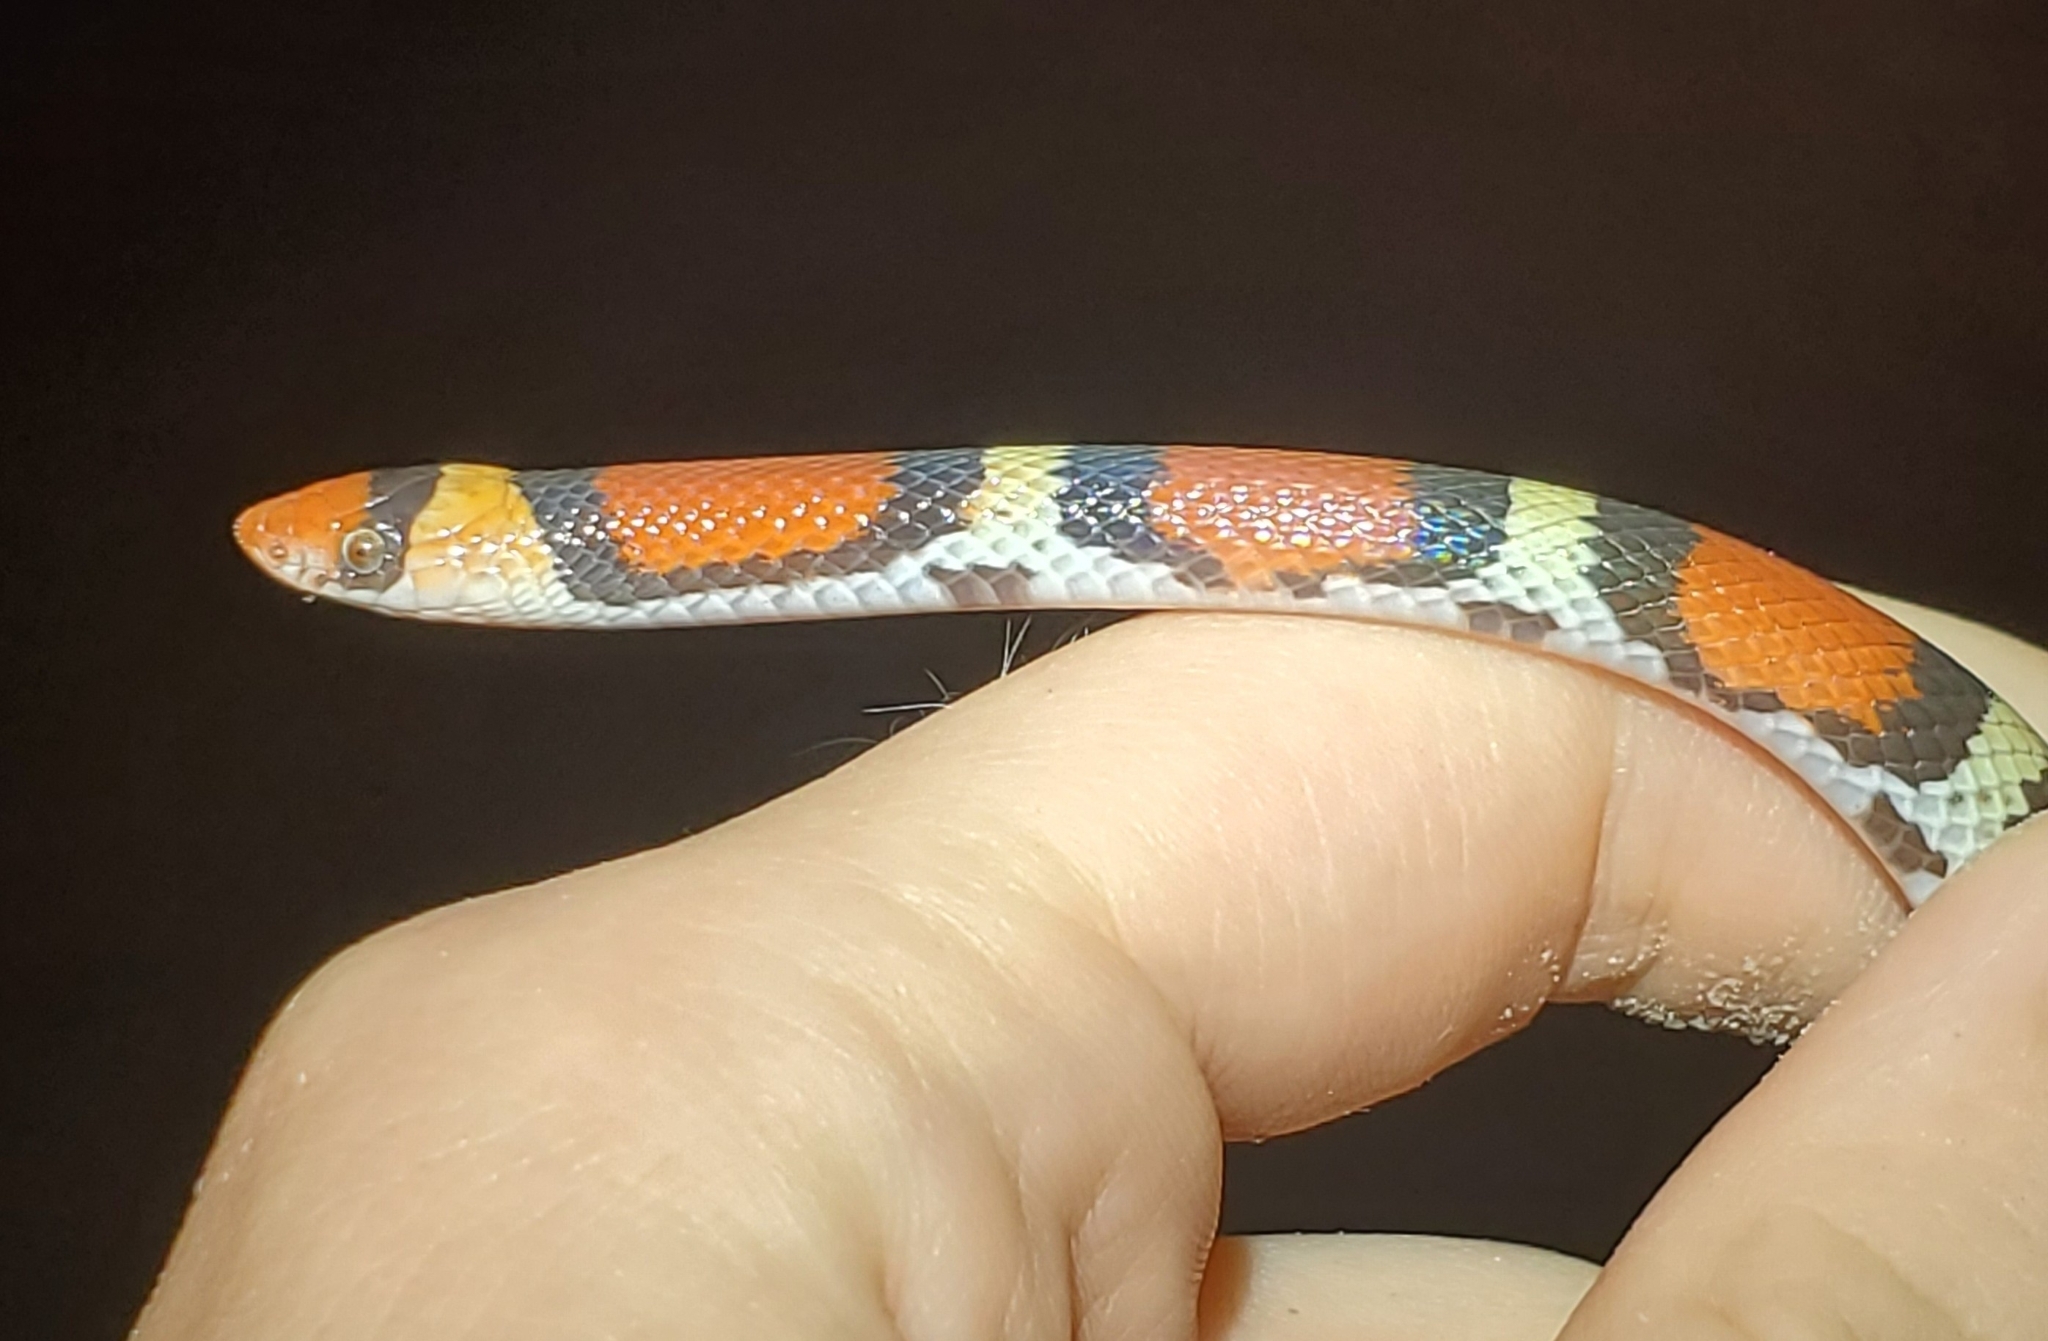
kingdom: Animalia
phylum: Chordata
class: Squamata
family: Colubridae
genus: Cemophora
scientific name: Cemophora coccinea
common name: Scarlet snake
